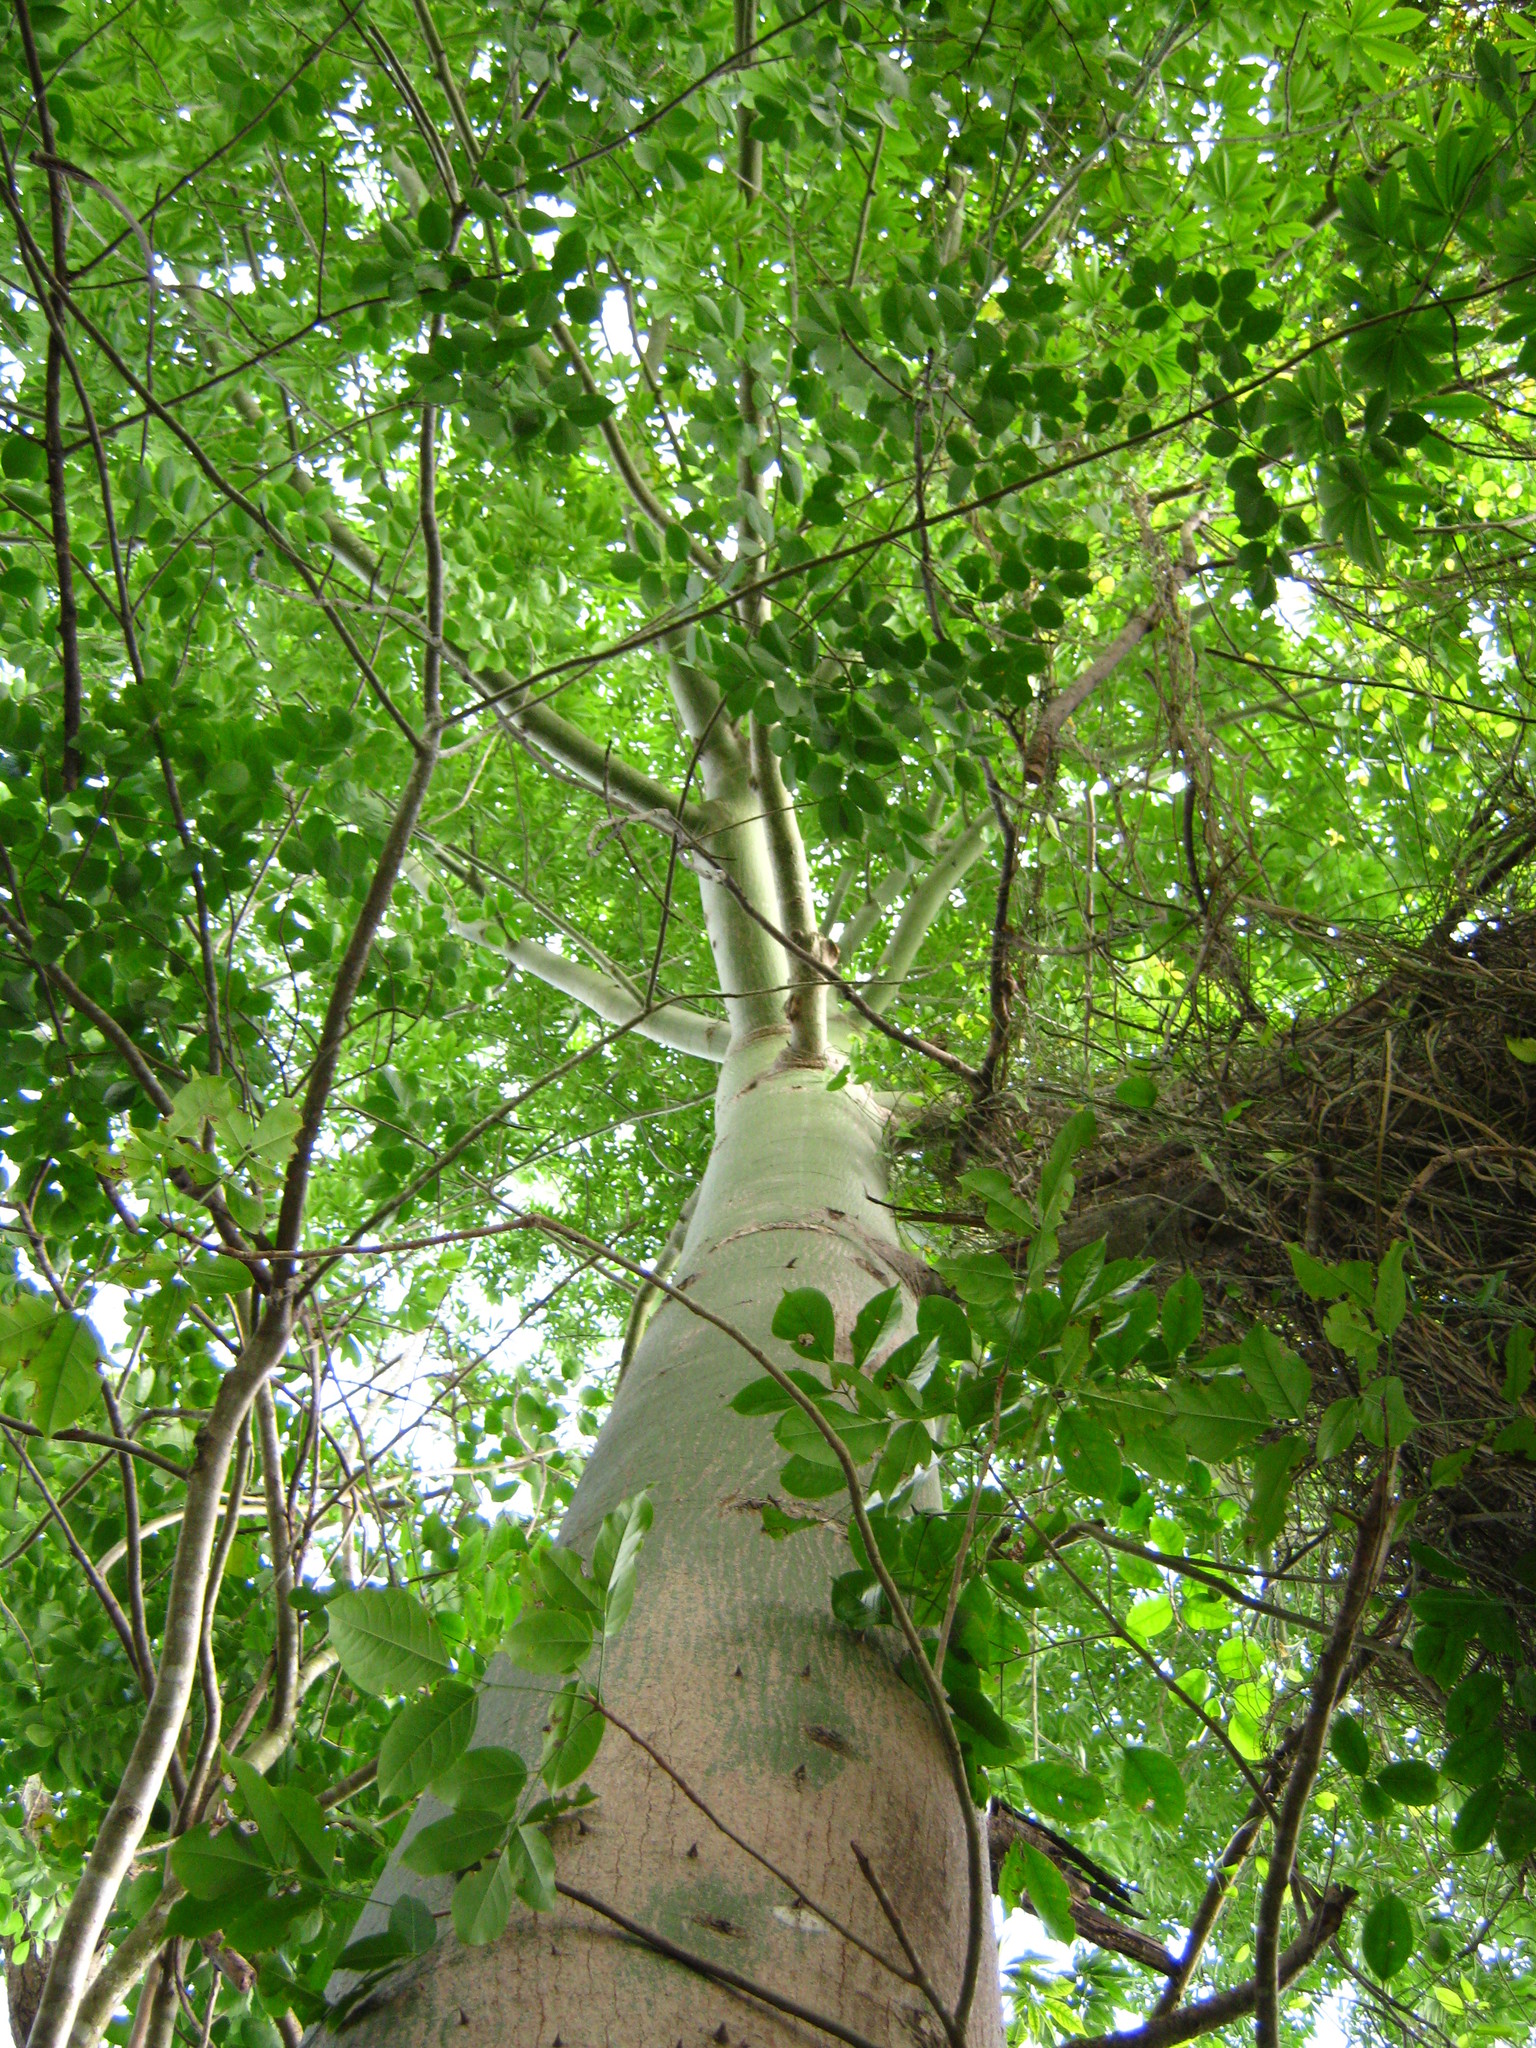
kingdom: Plantae
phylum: Tracheophyta
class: Magnoliopsida
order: Malvales
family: Malvaceae
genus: Ceiba
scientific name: Ceiba pentandra
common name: Kapok
